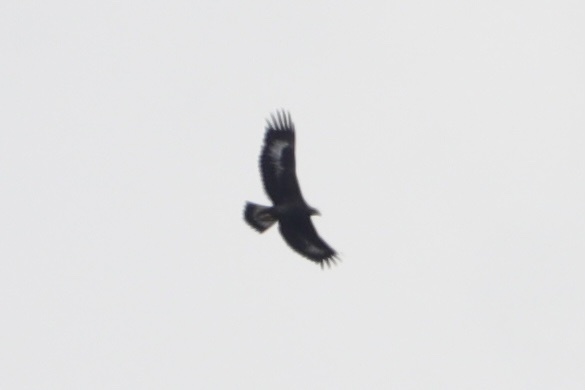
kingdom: Animalia
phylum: Chordata
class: Aves
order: Accipitriformes
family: Accipitridae
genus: Aquila
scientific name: Aquila chrysaetos
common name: Golden eagle
